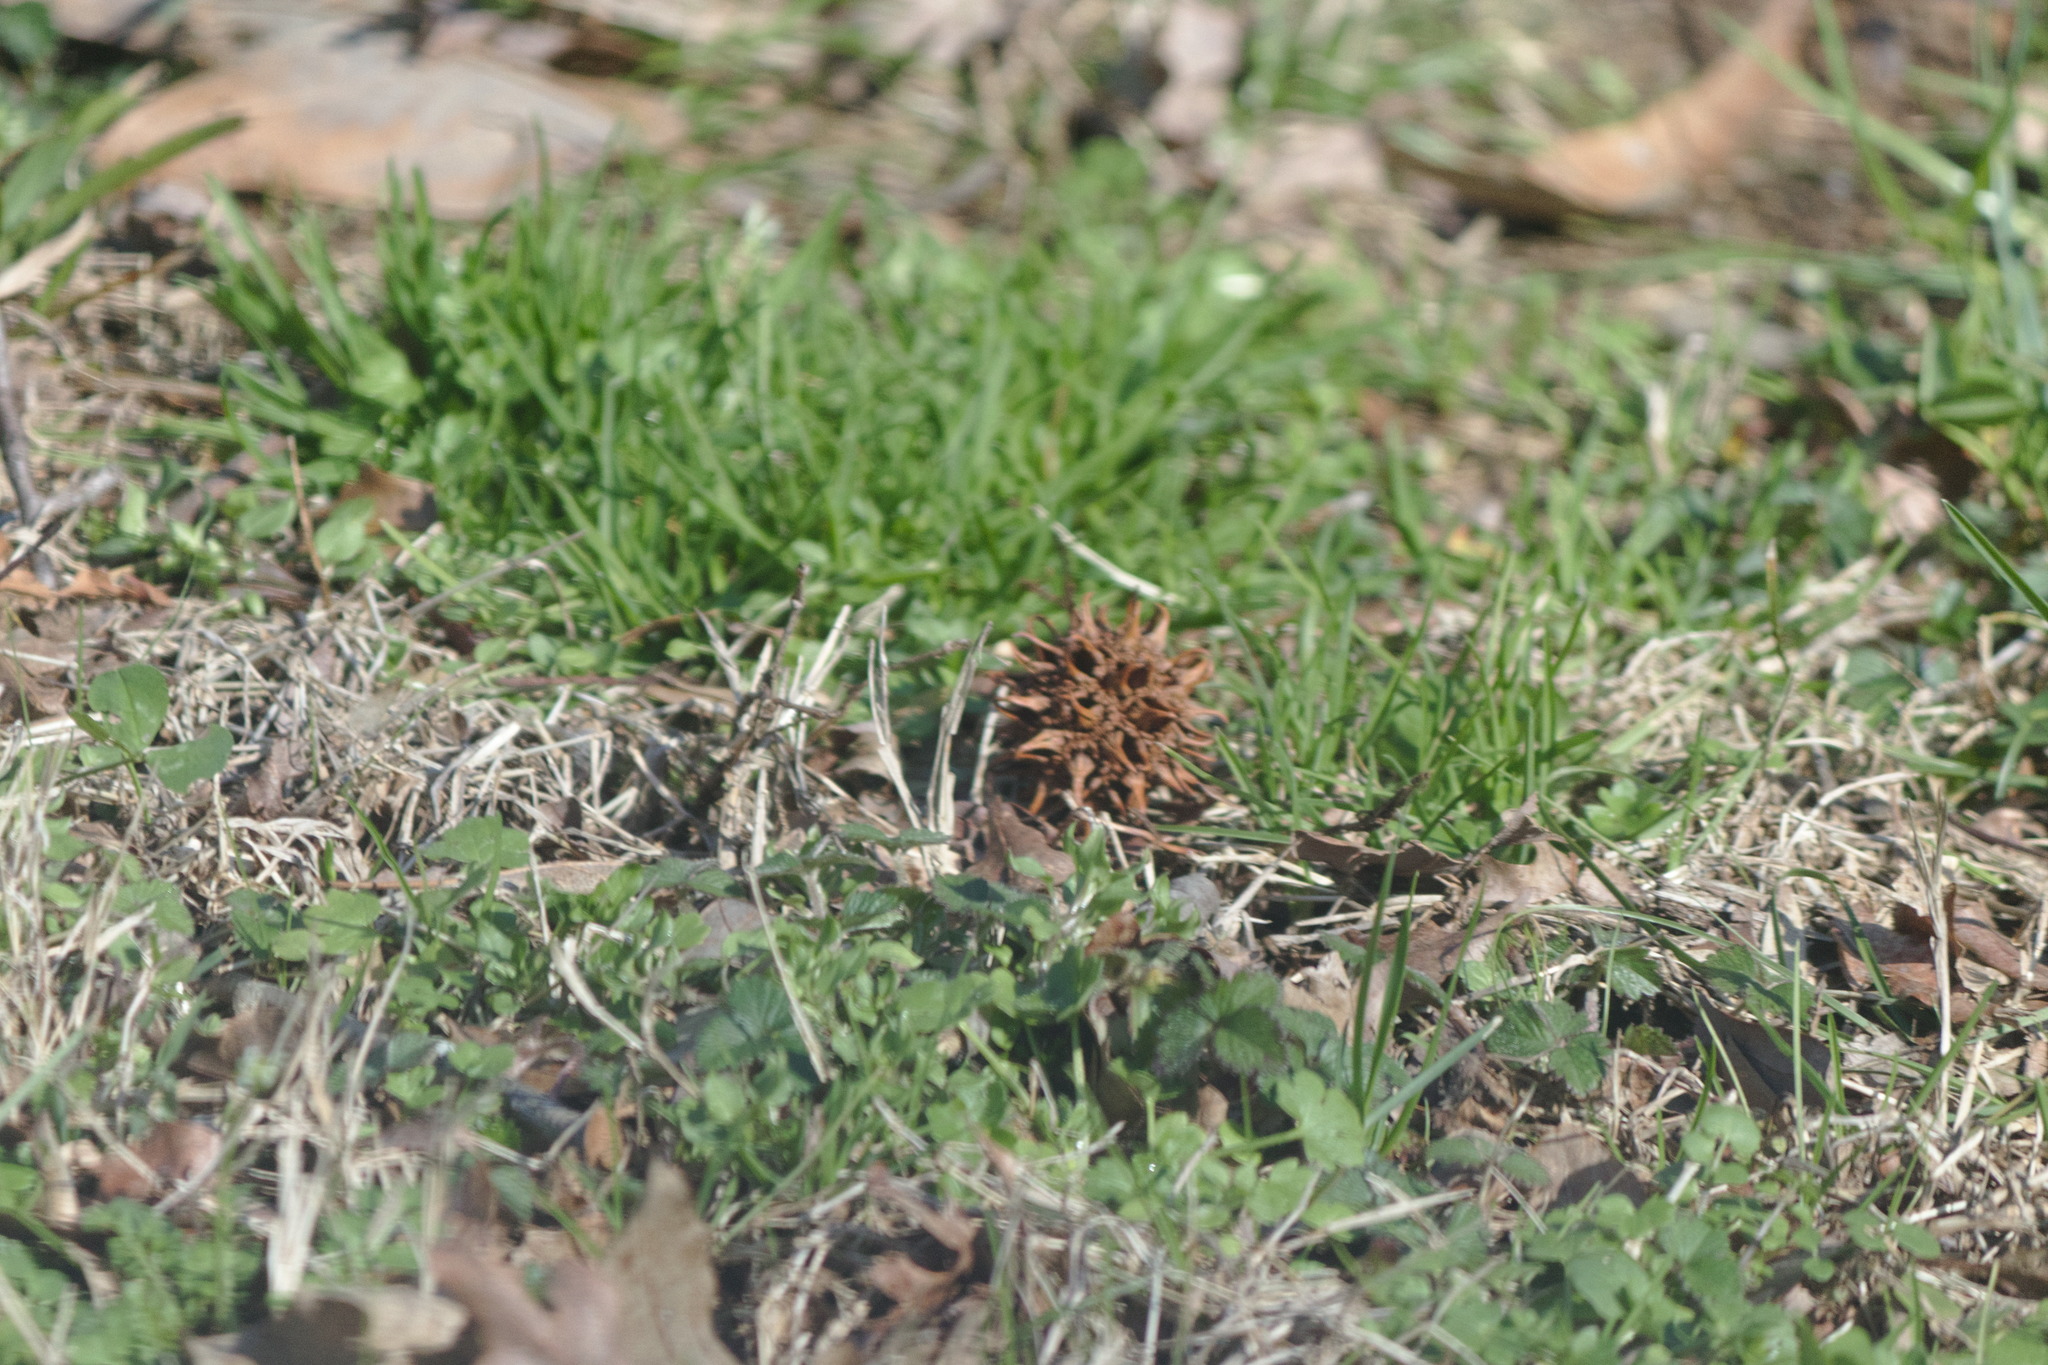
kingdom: Plantae
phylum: Tracheophyta
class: Magnoliopsida
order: Saxifragales
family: Altingiaceae
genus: Liquidambar
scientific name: Liquidambar styraciflua
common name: Sweet gum
